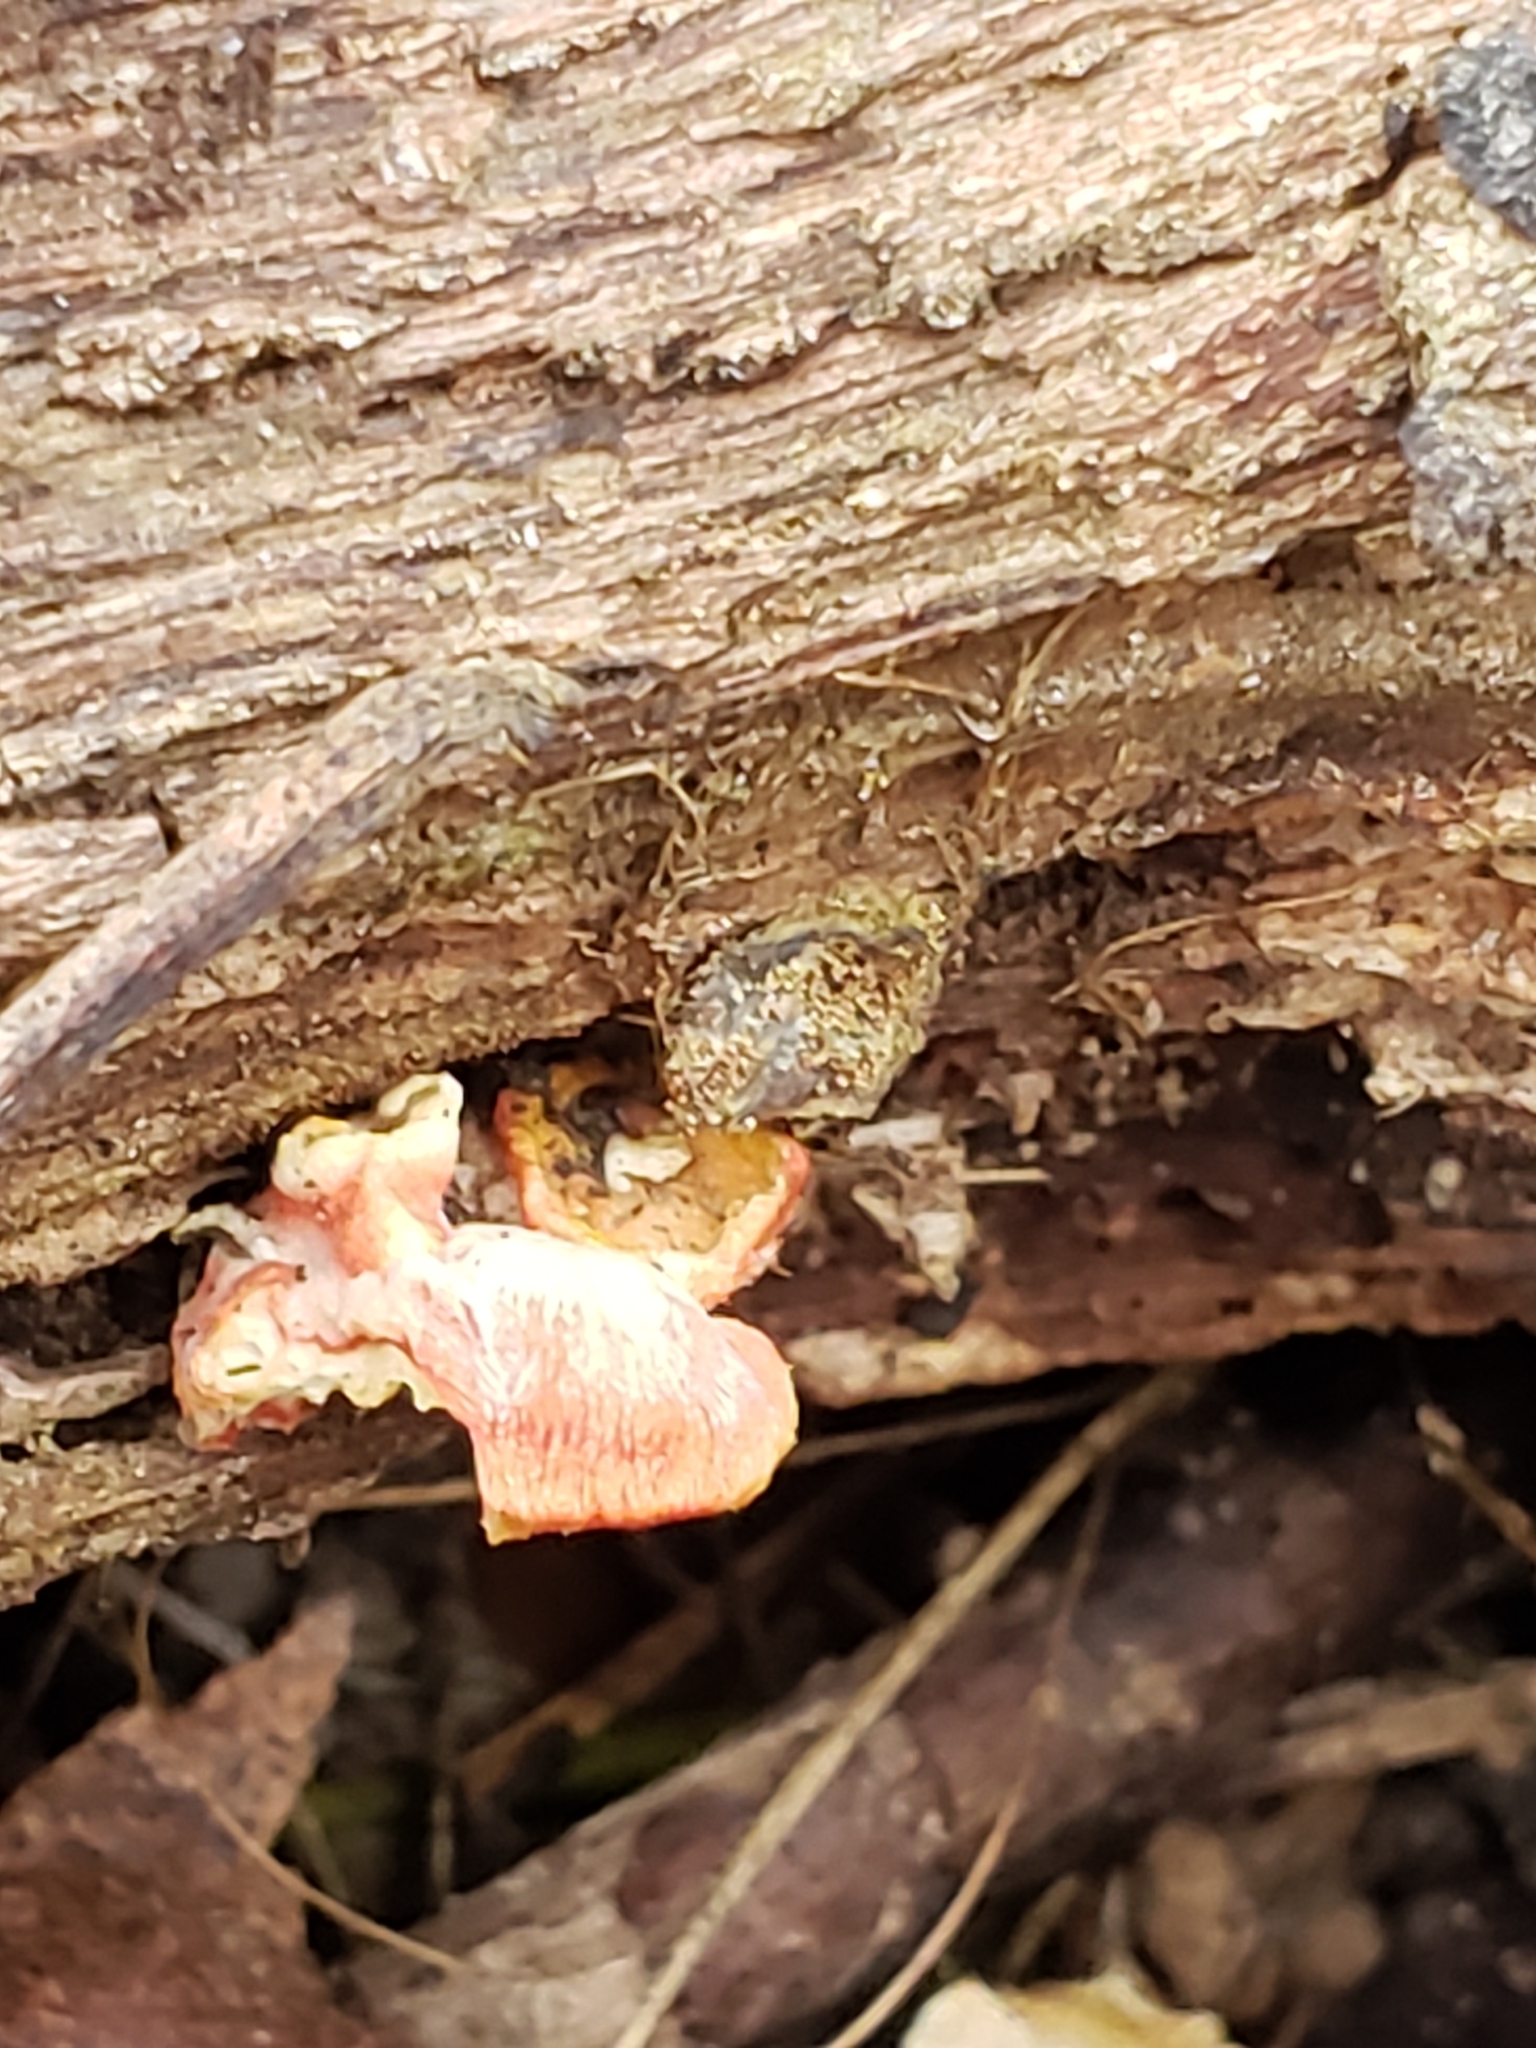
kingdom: Fungi
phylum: Basidiomycota
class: Agaricomycetes
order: Polyporales
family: Irpicaceae
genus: Byssomerulius
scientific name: Byssomerulius incarnatus
